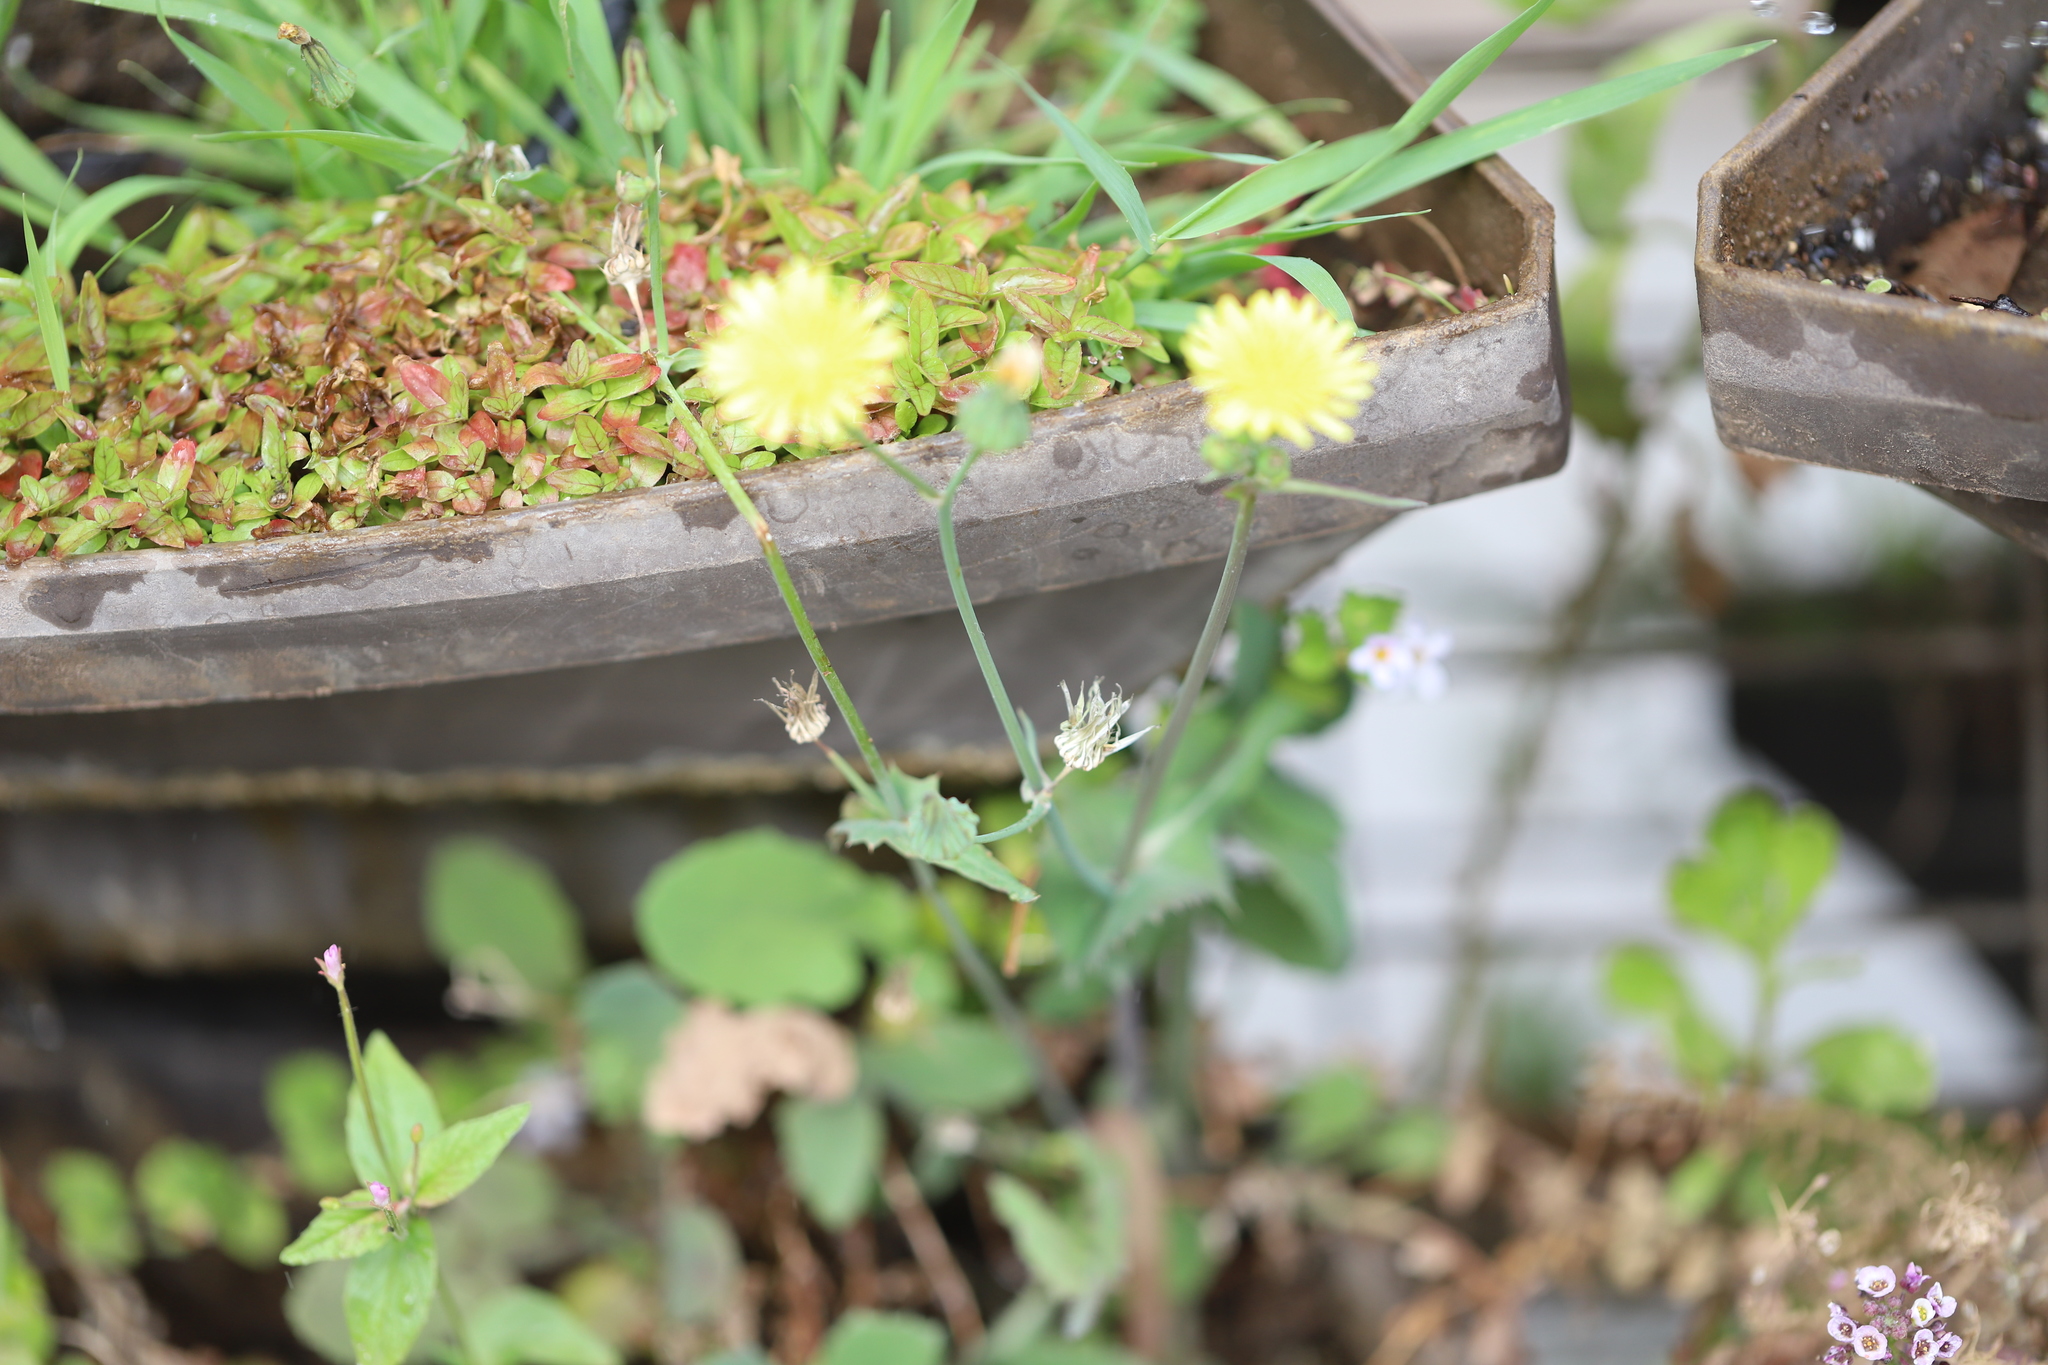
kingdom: Plantae
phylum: Tracheophyta
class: Magnoliopsida
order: Asterales
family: Asteraceae
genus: Sonchus
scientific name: Sonchus oleraceus
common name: Common sowthistle
